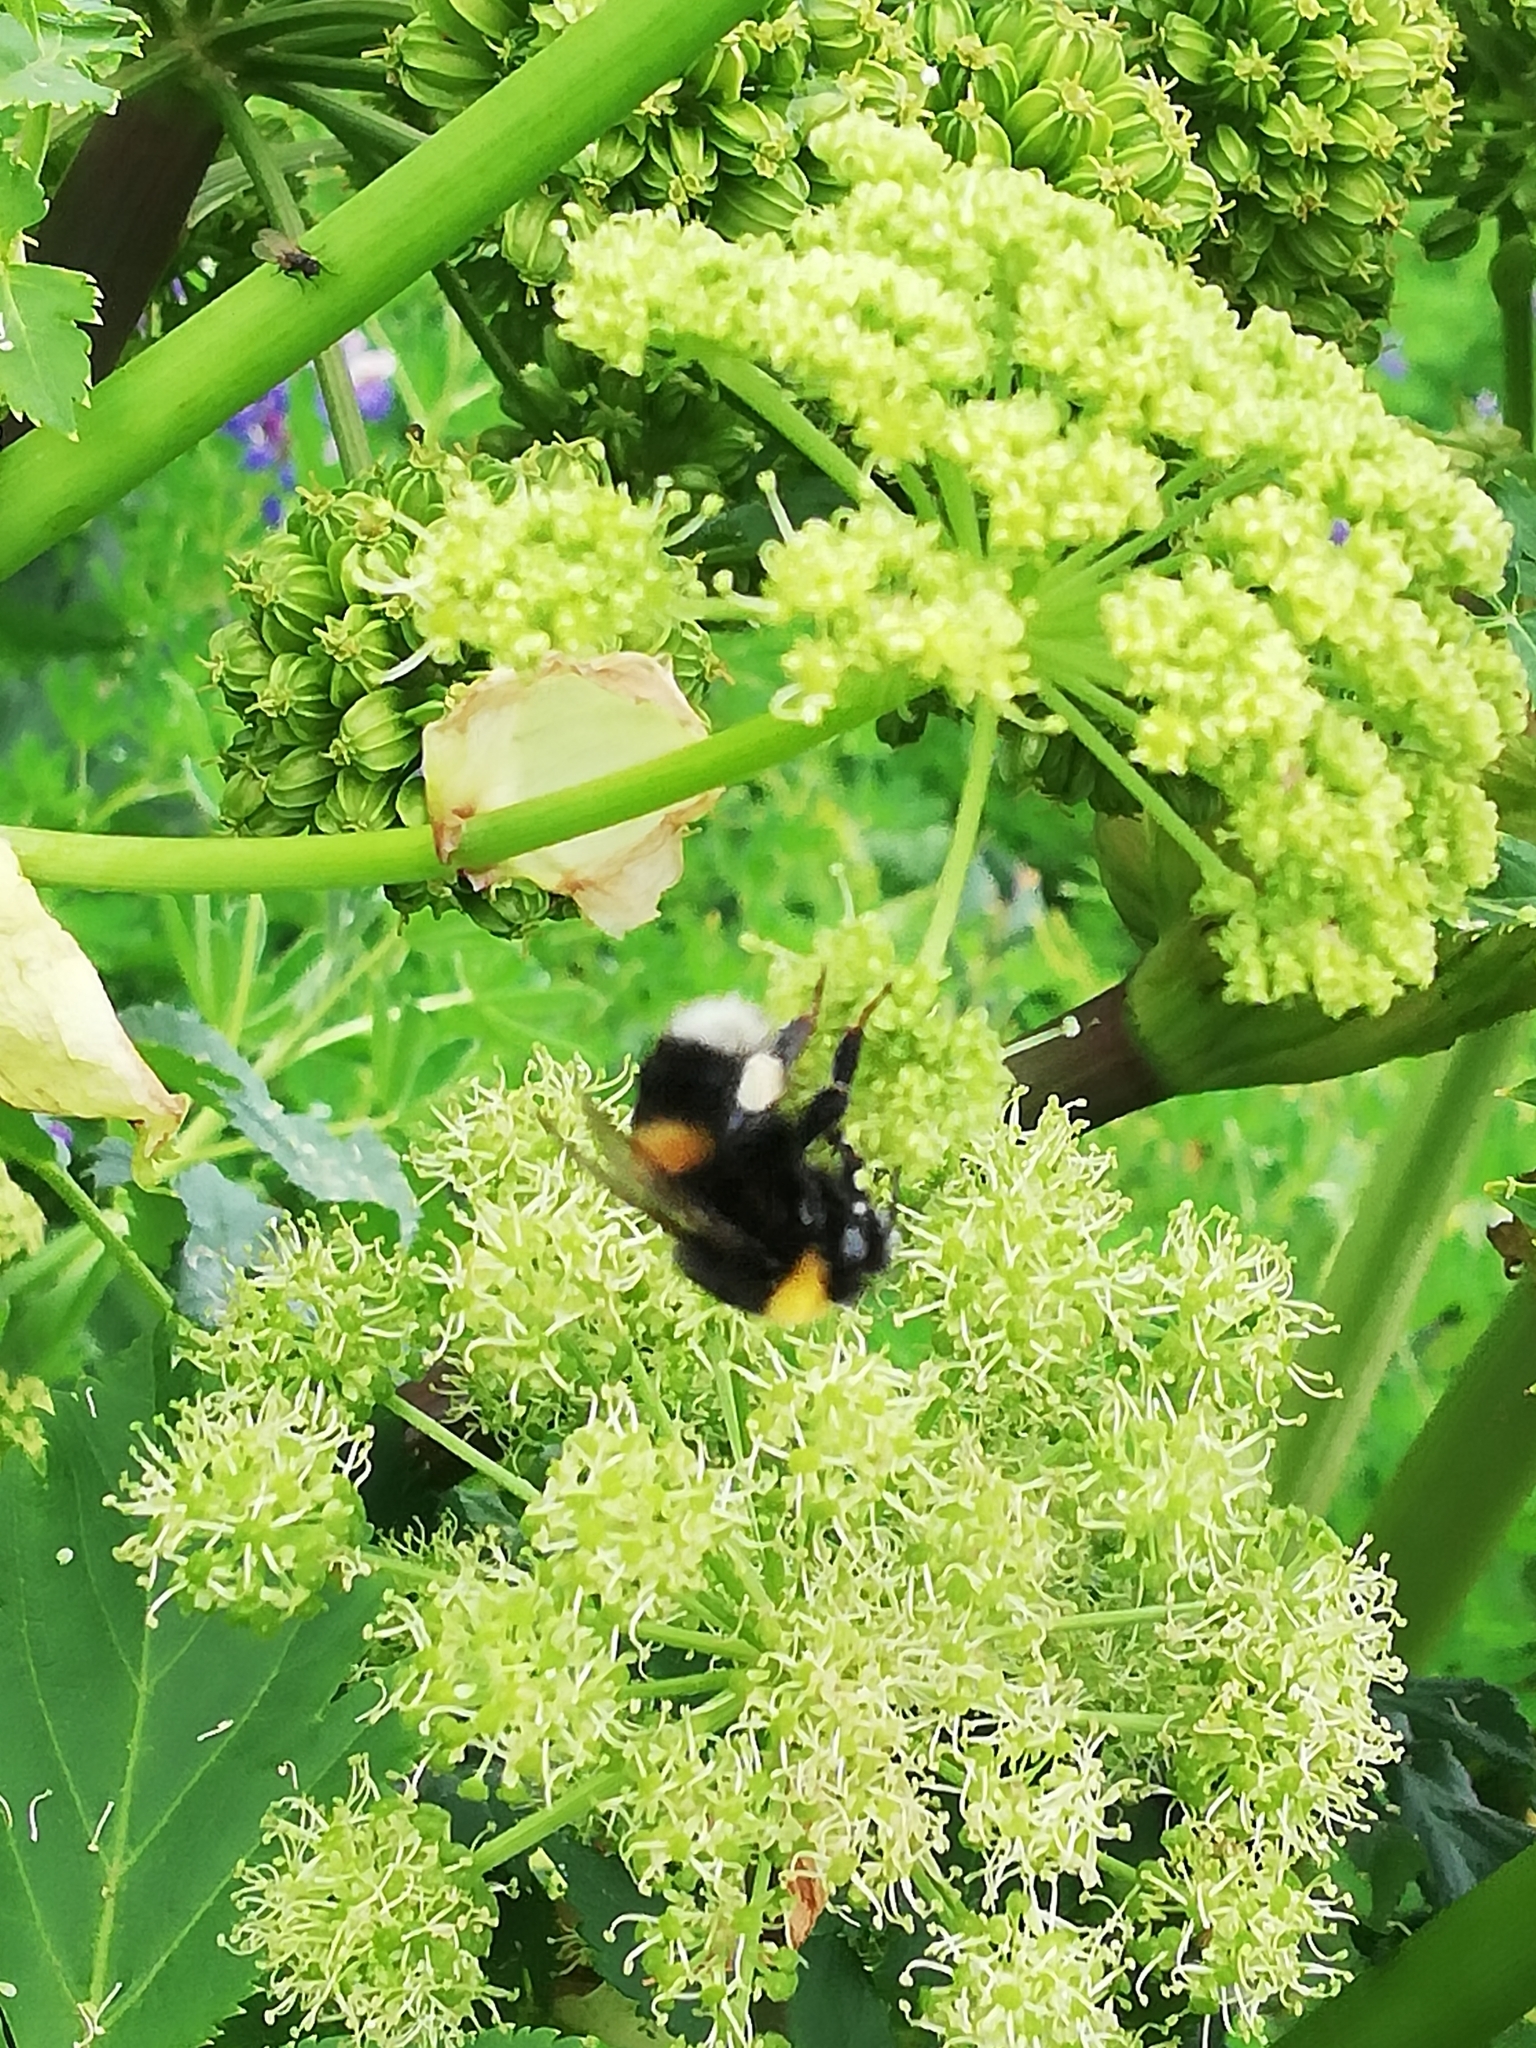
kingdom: Animalia
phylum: Arthropoda
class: Insecta
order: Hymenoptera
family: Apidae
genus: Bombus
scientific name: Bombus lucorum
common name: White-tailed bumblebee
